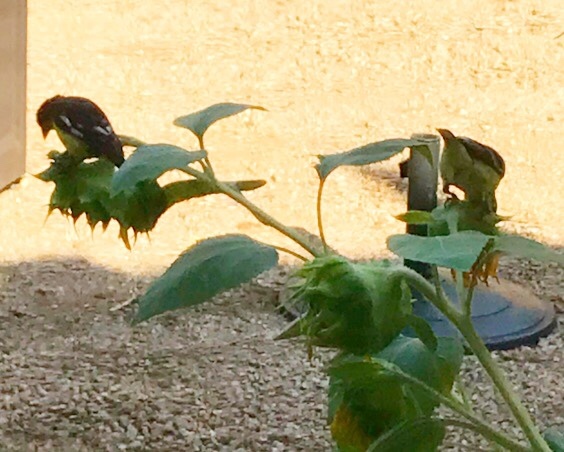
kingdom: Animalia
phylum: Chordata
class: Aves
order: Passeriformes
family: Fringillidae
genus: Spinus
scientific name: Spinus psaltria
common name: Lesser goldfinch
